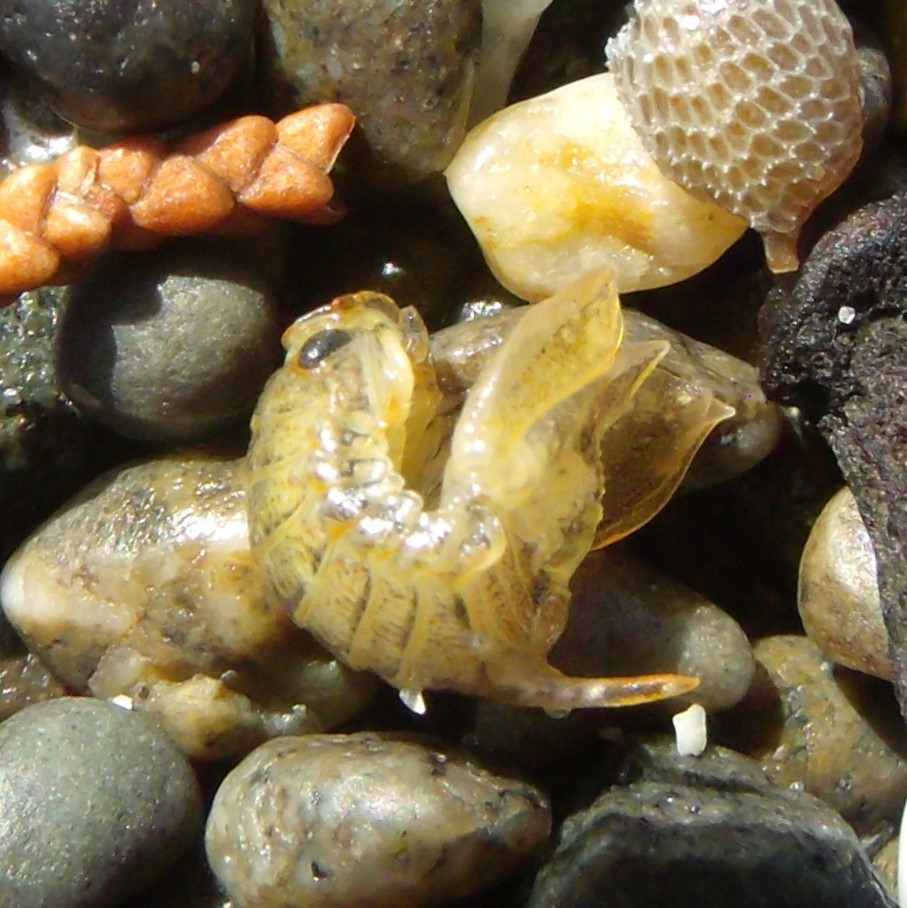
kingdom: Animalia
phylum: Arthropoda
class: Malacostraca
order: Isopoda
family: Sphaeromatidae
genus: Isocladus
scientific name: Isocladus armatus
